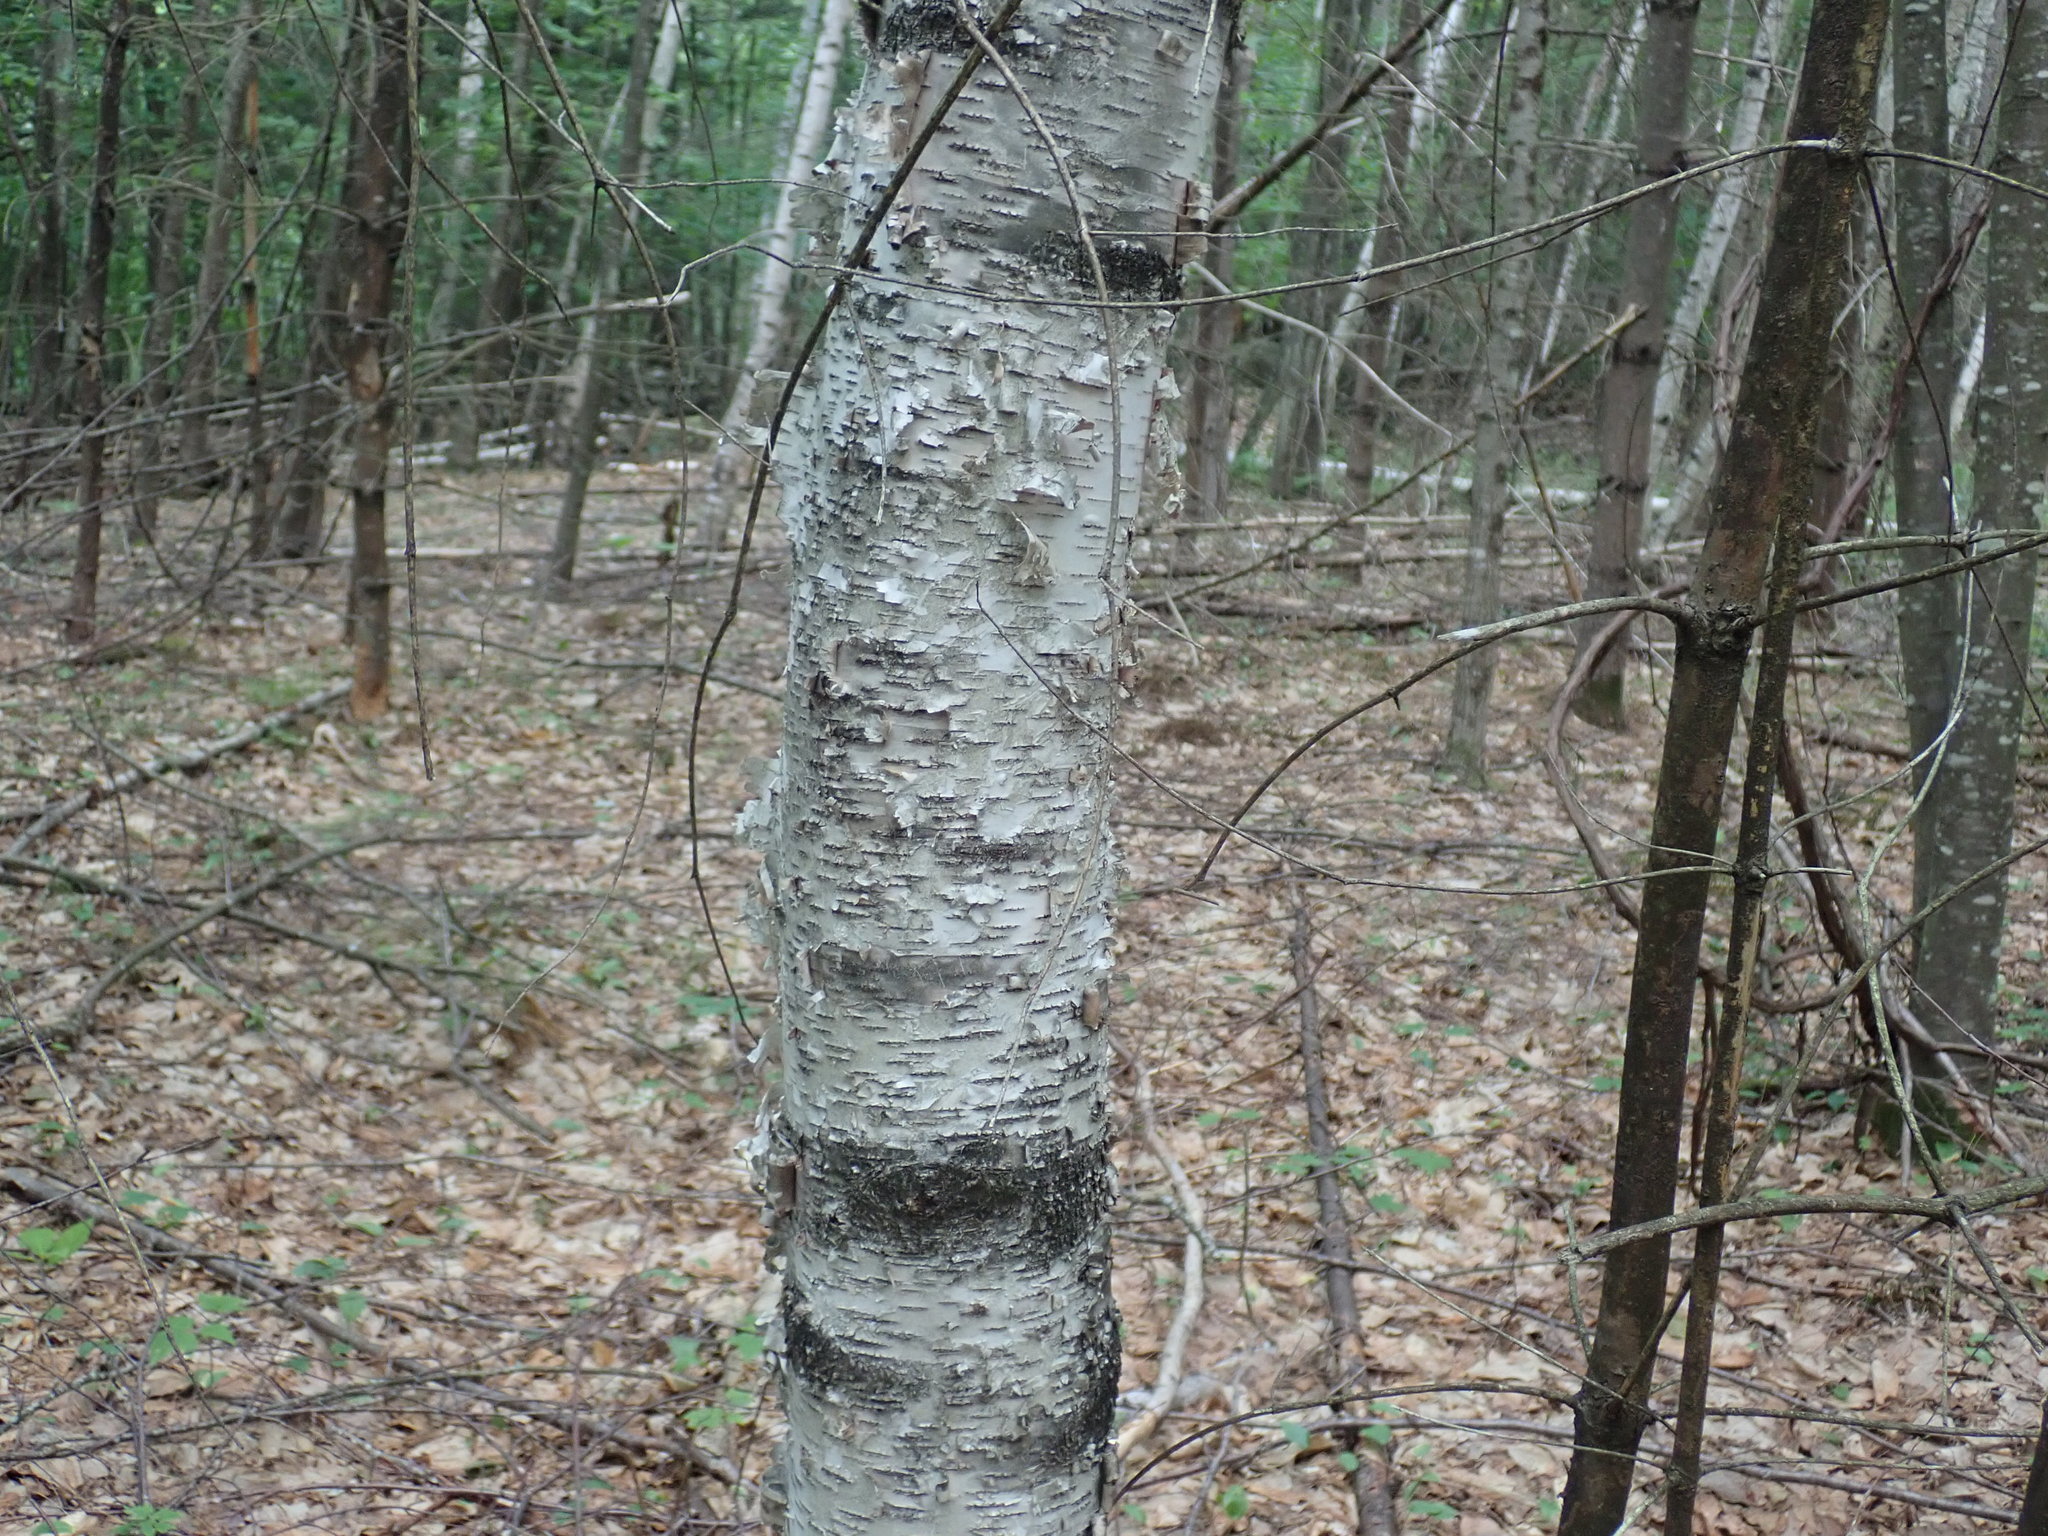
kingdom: Plantae
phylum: Tracheophyta
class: Magnoliopsida
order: Fagales
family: Betulaceae
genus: Betula
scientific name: Betula papyrifera
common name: Paper birch
